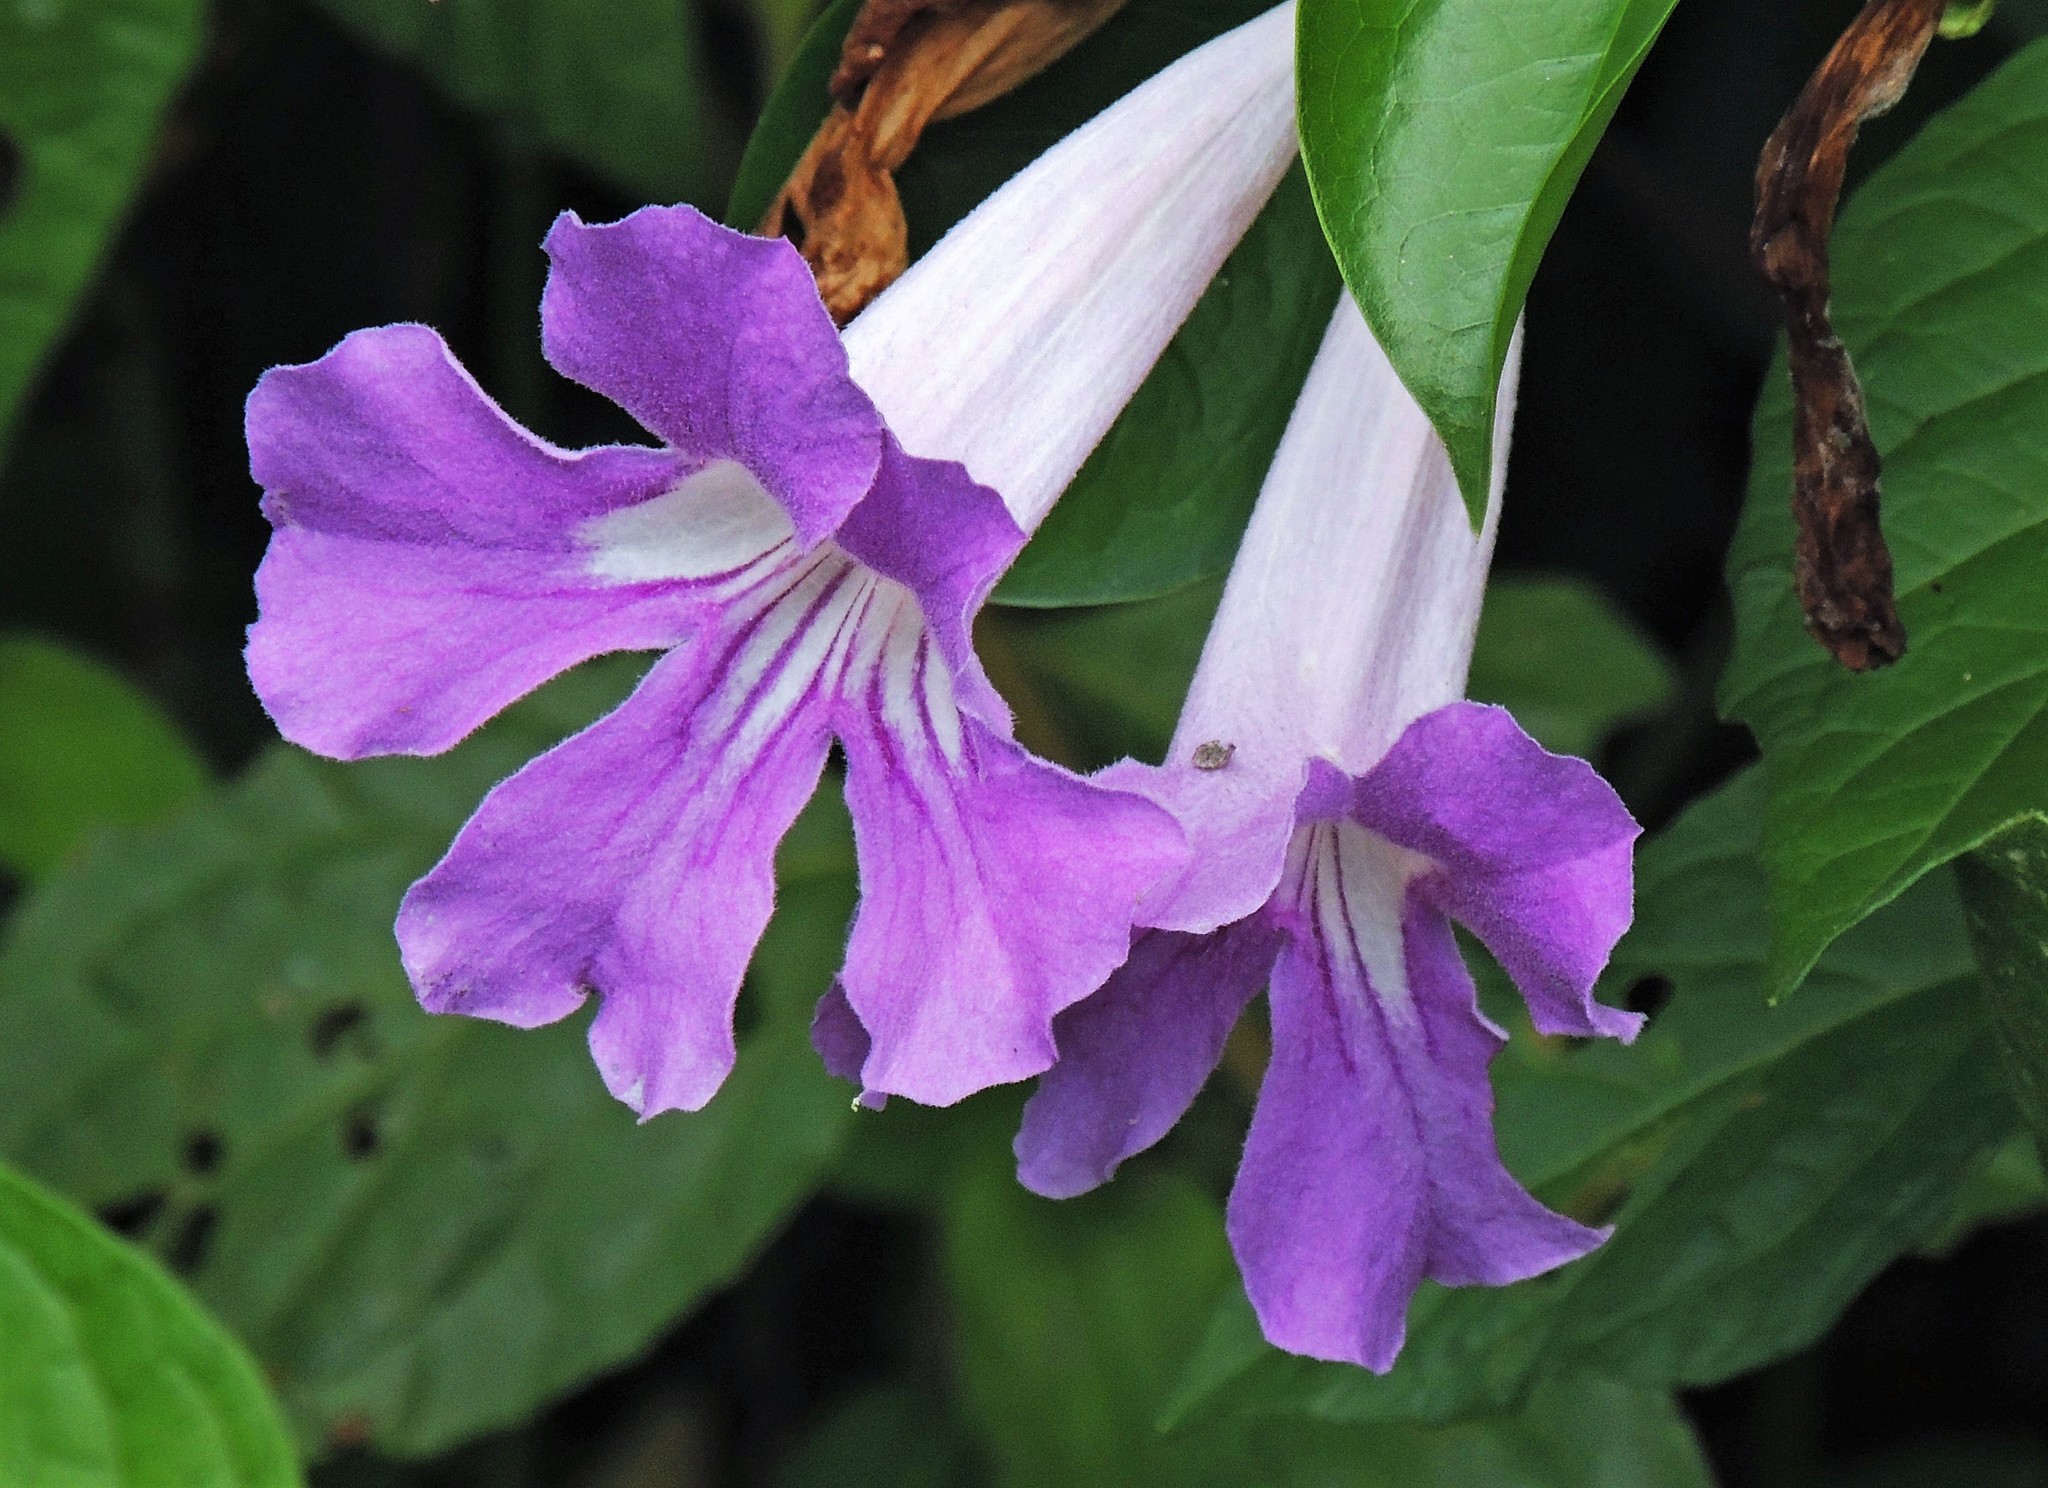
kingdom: Plantae
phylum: Tracheophyta
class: Magnoliopsida
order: Lamiales
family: Bignoniaceae
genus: Bignonia
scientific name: Bignonia callistegioides
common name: Argentine trumpetvine
